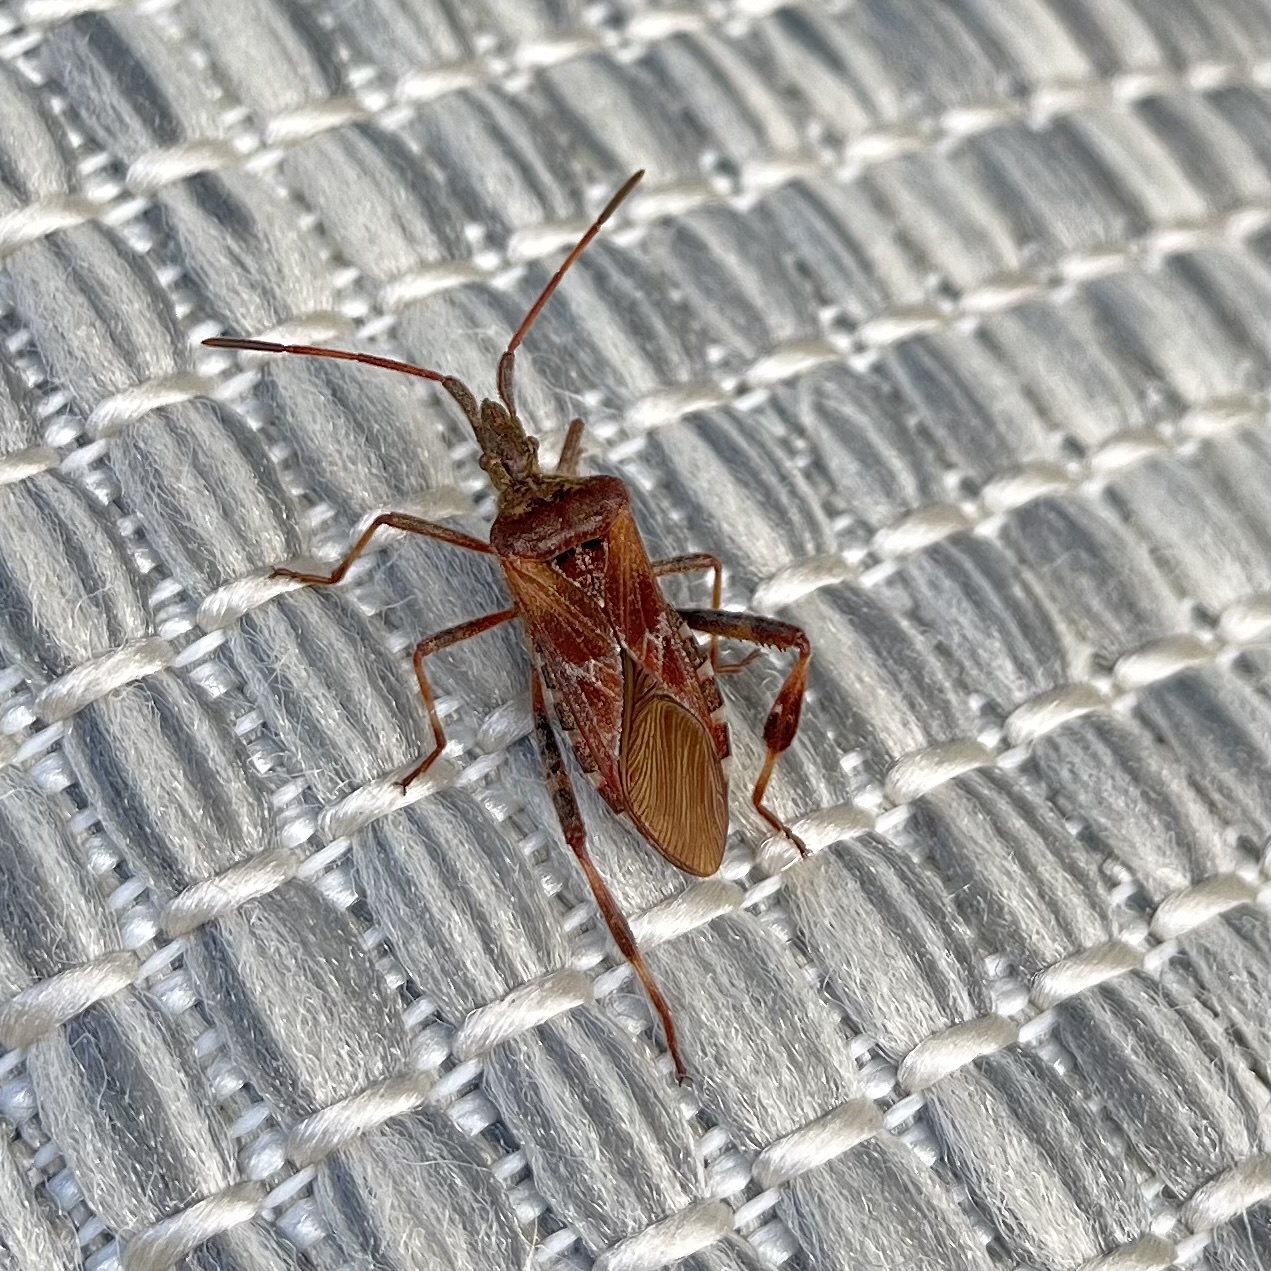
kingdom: Animalia
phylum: Arthropoda
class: Insecta
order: Hemiptera
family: Coreidae
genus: Leptoglossus
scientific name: Leptoglossus occidentalis
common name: Western conifer-seed bug
